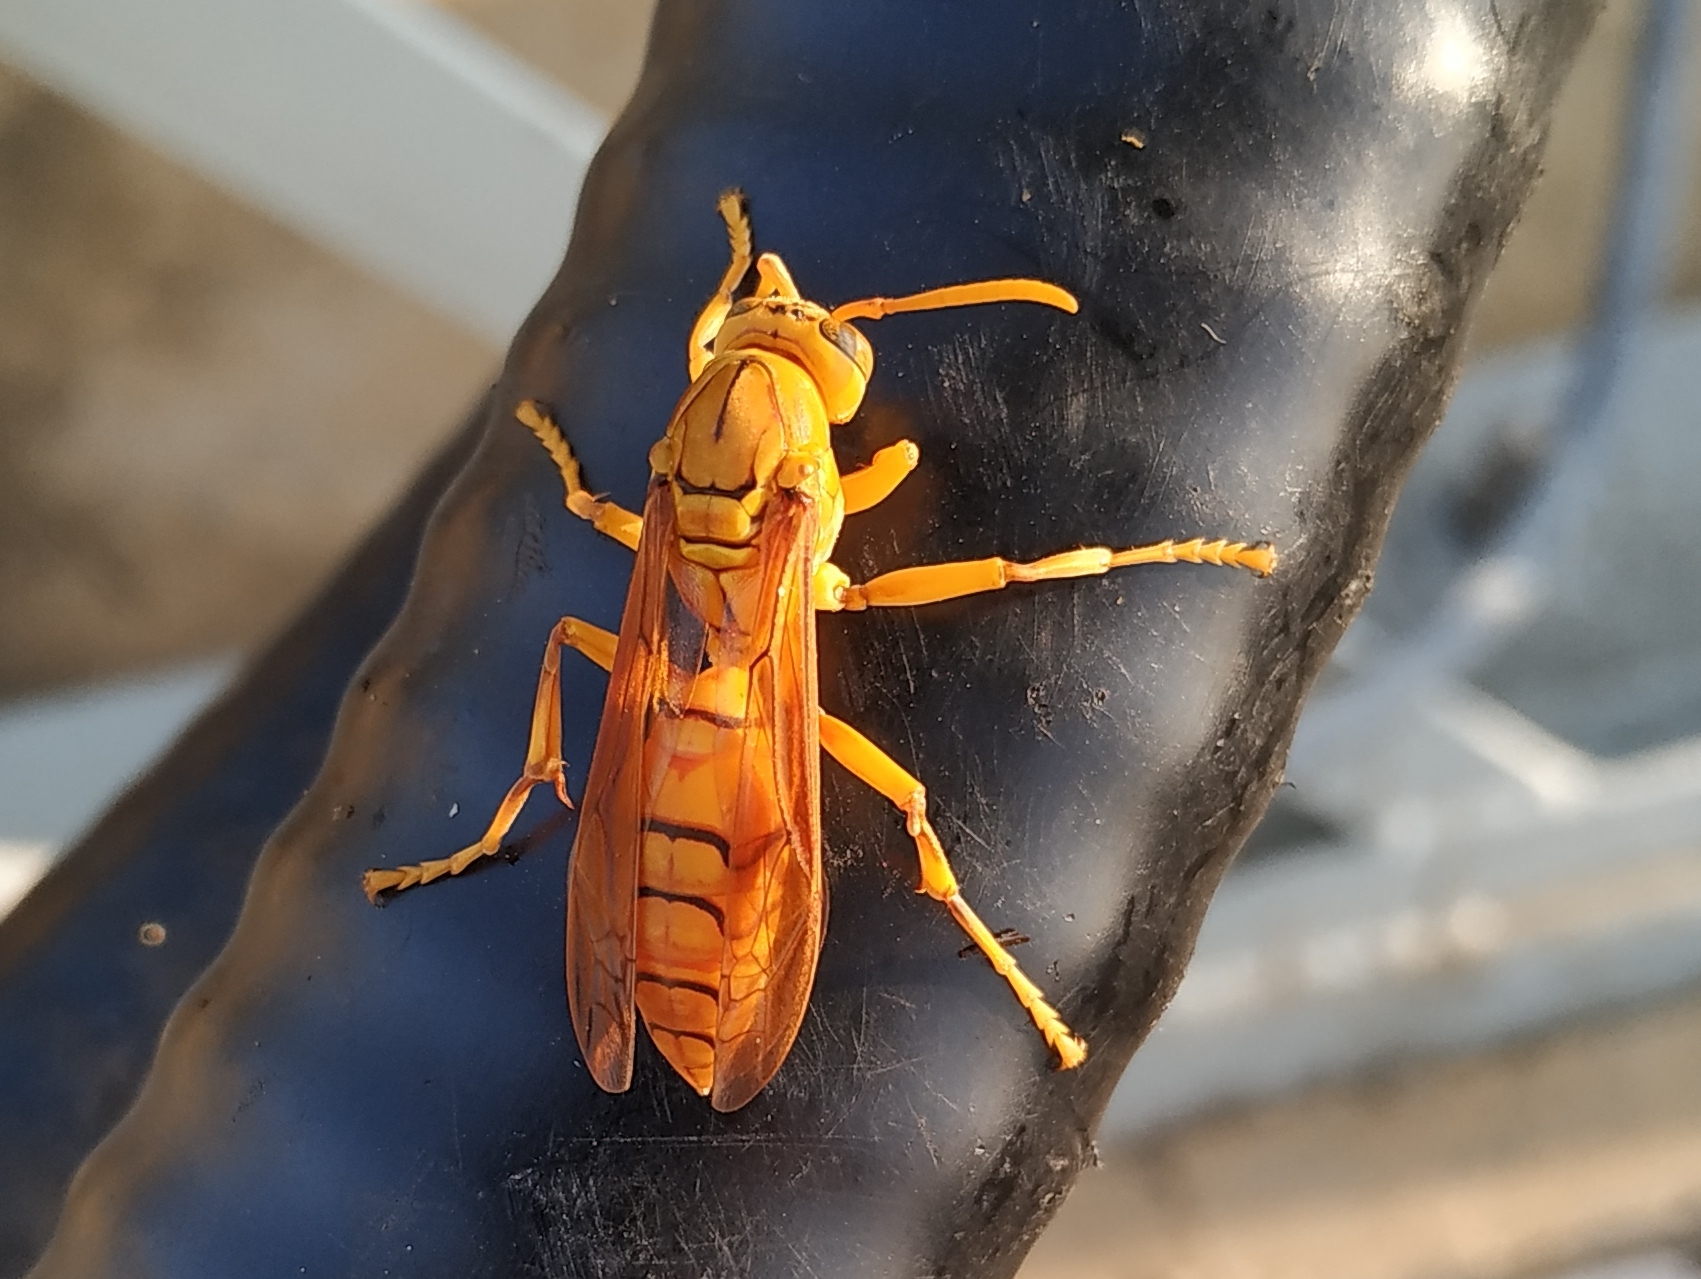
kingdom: Animalia
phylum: Arthropoda
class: Insecta
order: Hymenoptera
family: Eumenidae
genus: Polistes
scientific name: Polistes olivaceus
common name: Paper wasp
